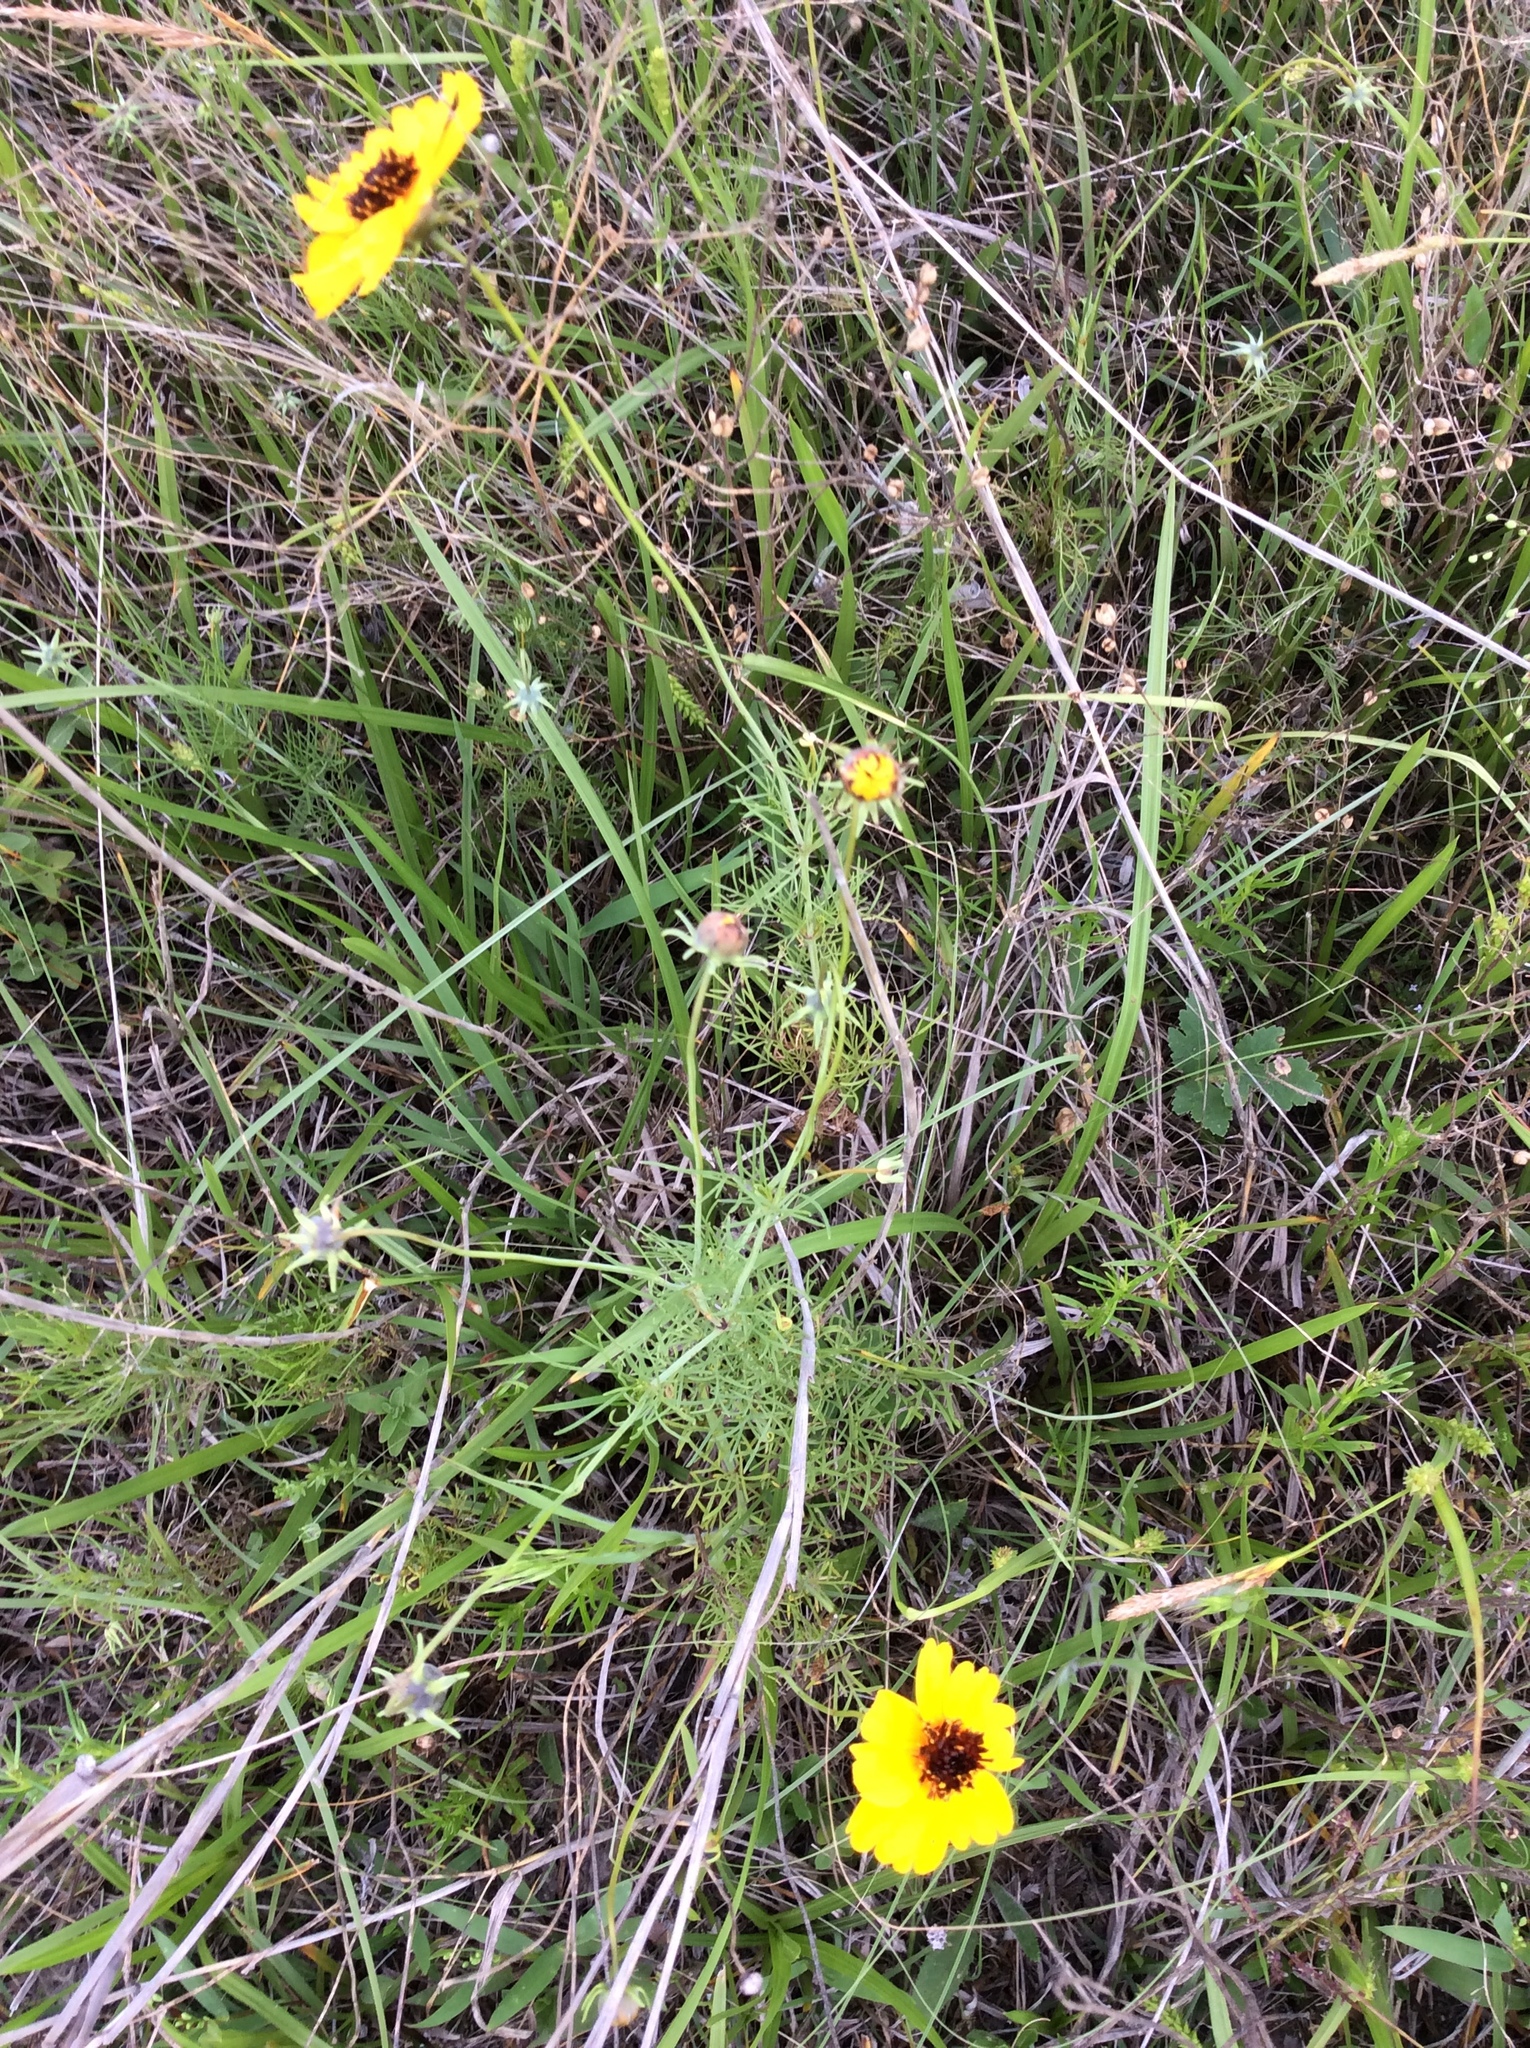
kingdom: Plantae
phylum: Tracheophyta
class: Magnoliopsida
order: Asterales
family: Asteraceae
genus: Thelesperma
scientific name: Thelesperma filifolium
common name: Stiff greenthread
